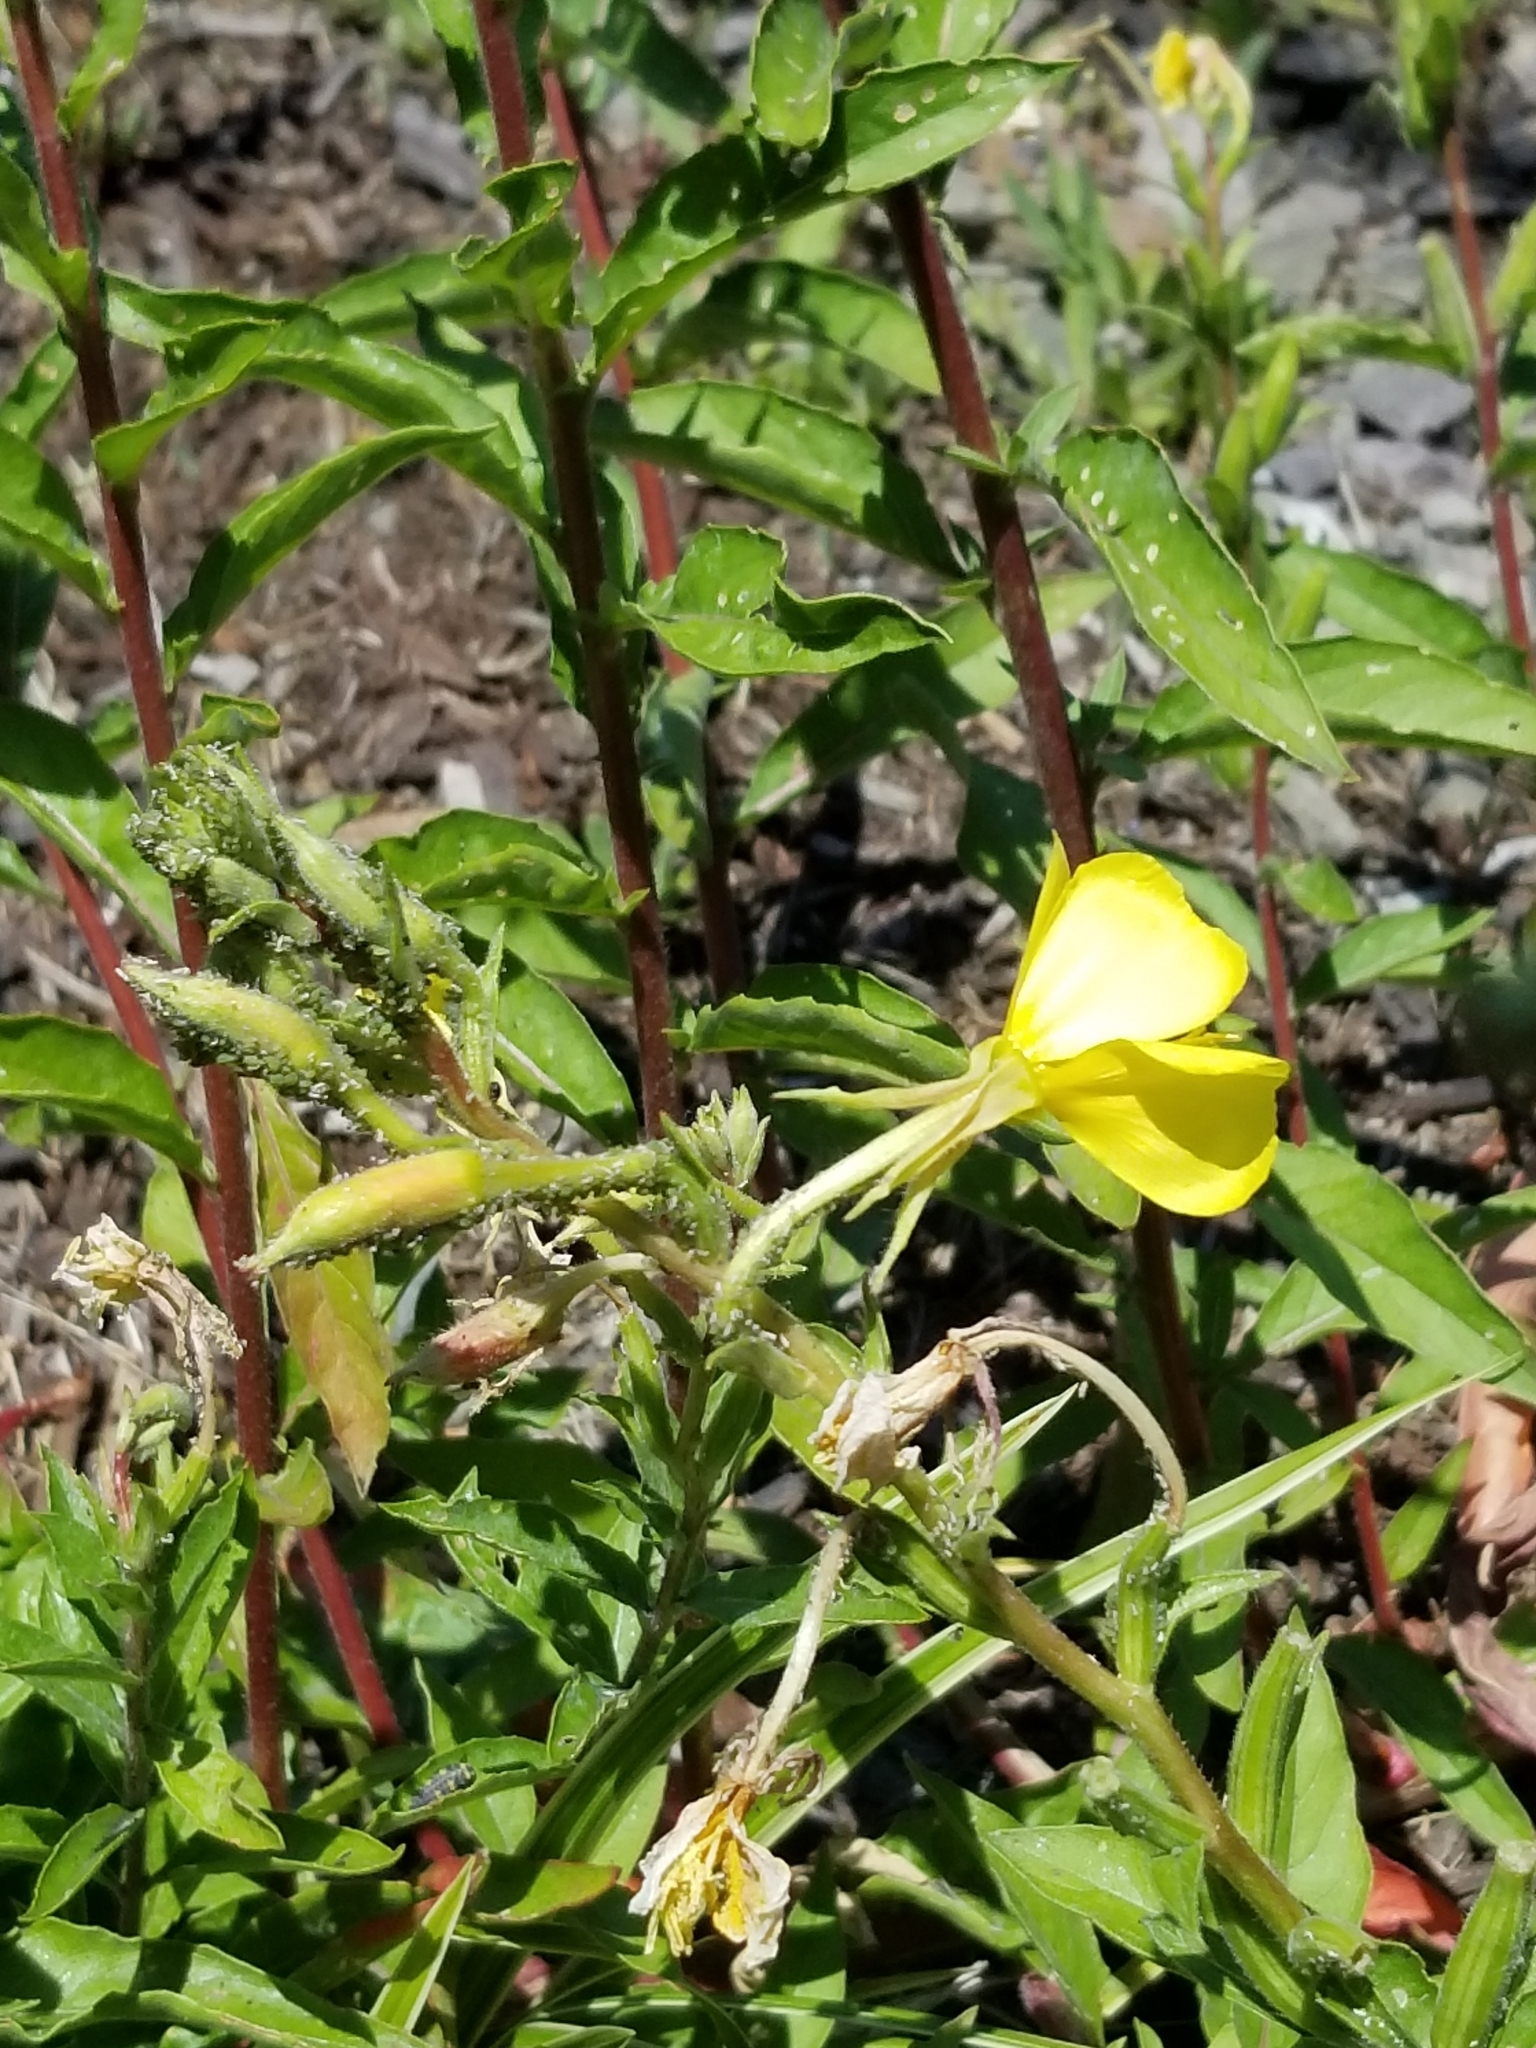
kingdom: Plantae
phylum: Tracheophyta
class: Magnoliopsida
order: Myrtales
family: Onagraceae
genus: Oenothera
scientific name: Oenothera biennis
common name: Common evening-primrose
